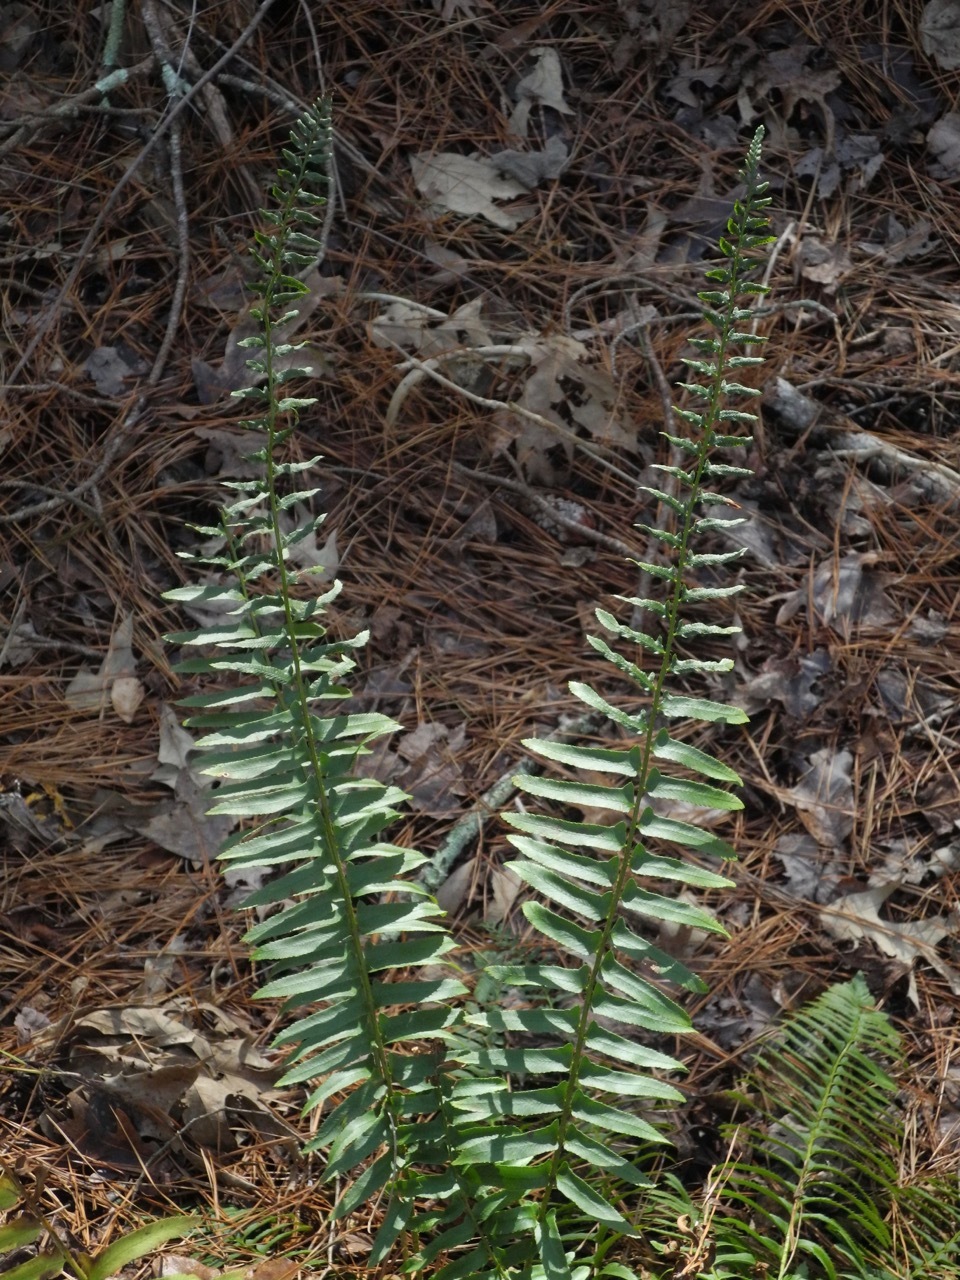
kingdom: Plantae
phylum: Tracheophyta
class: Polypodiopsida
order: Polypodiales
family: Dryopteridaceae
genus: Polystichum
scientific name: Polystichum acrostichoides
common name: Christmas fern
